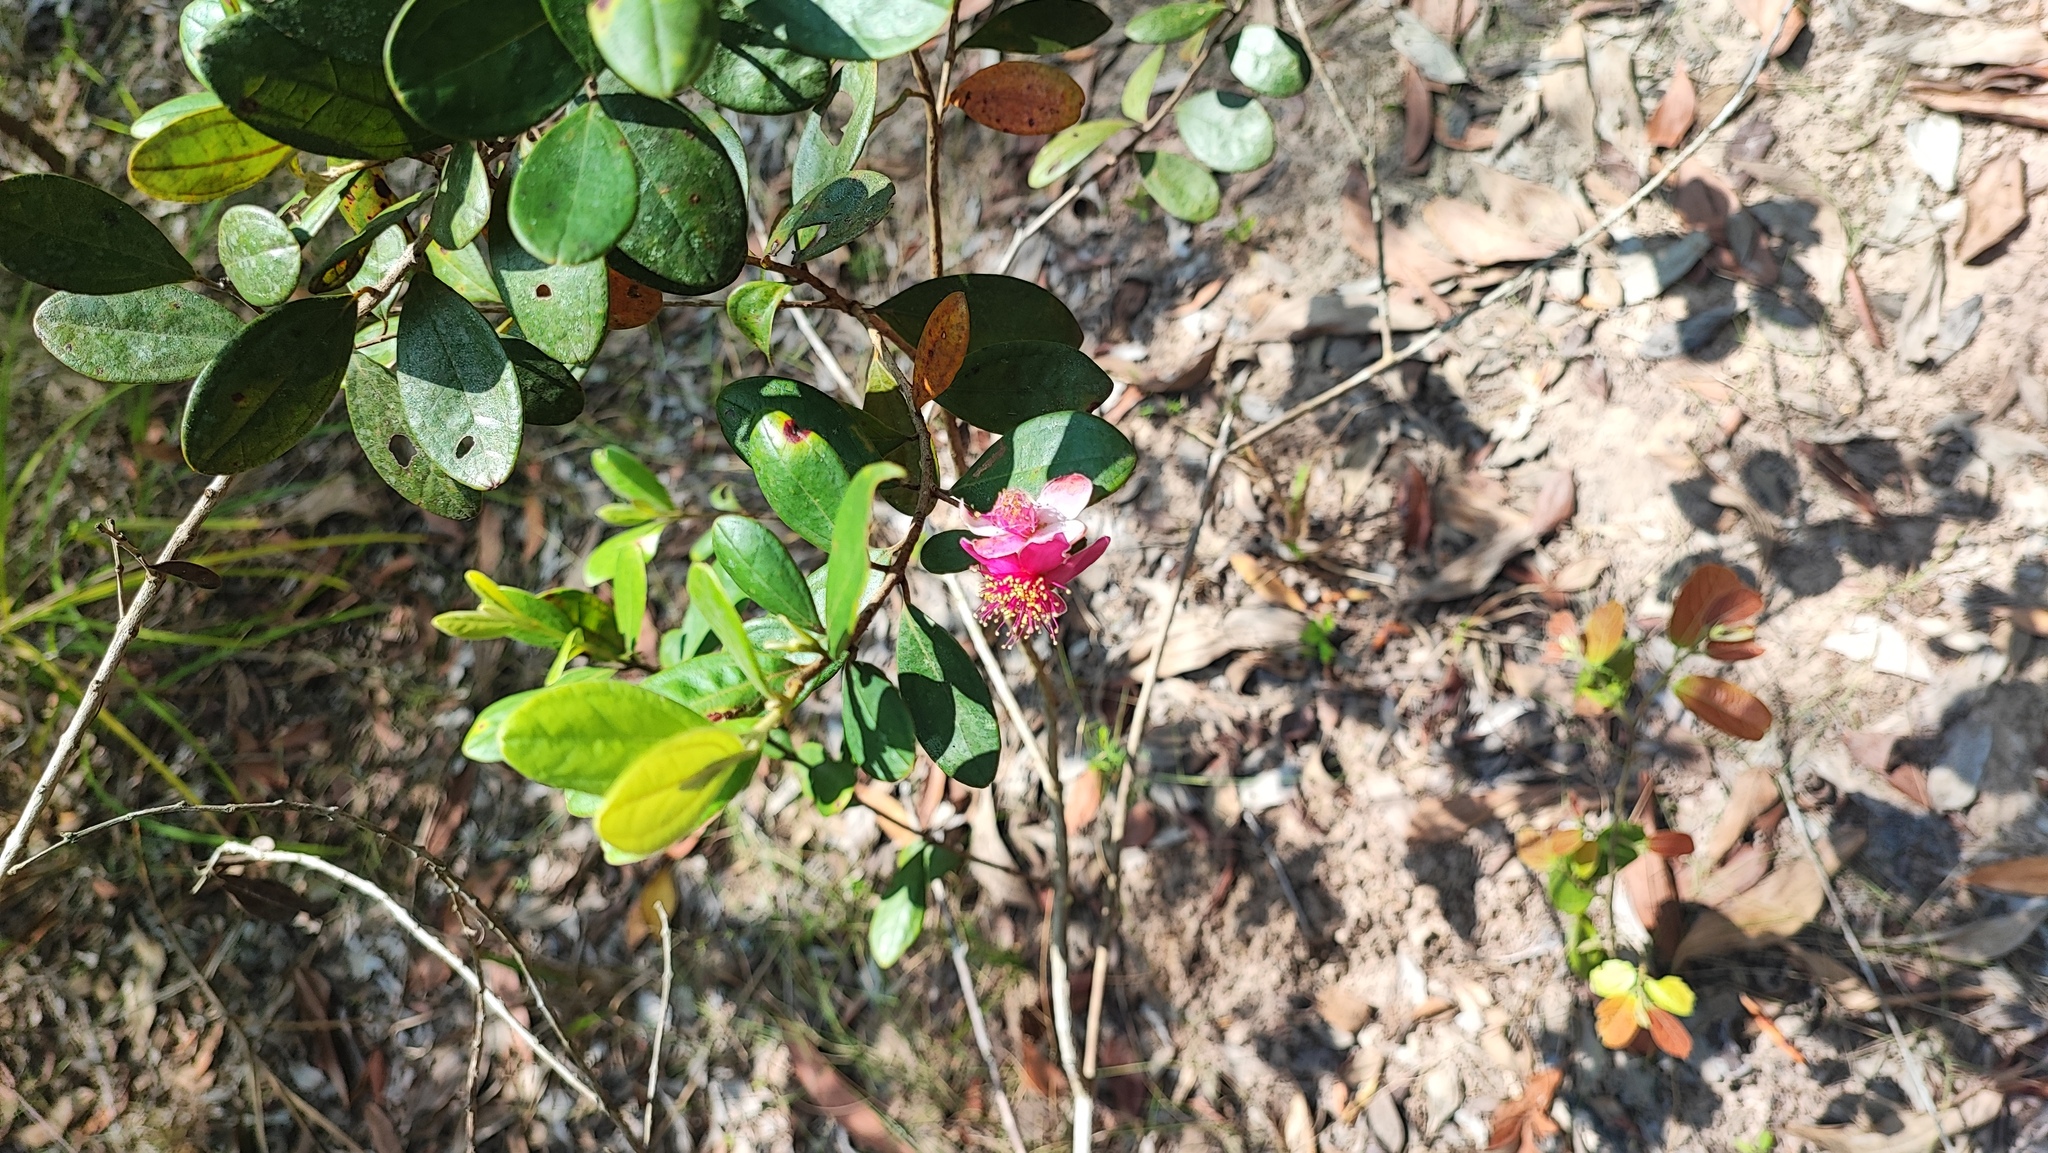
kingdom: Plantae
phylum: Tracheophyta
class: Magnoliopsida
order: Myrtales
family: Myrtaceae
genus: Rhodomyrtus
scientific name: Rhodomyrtus tomentosa
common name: Rose myrtle
